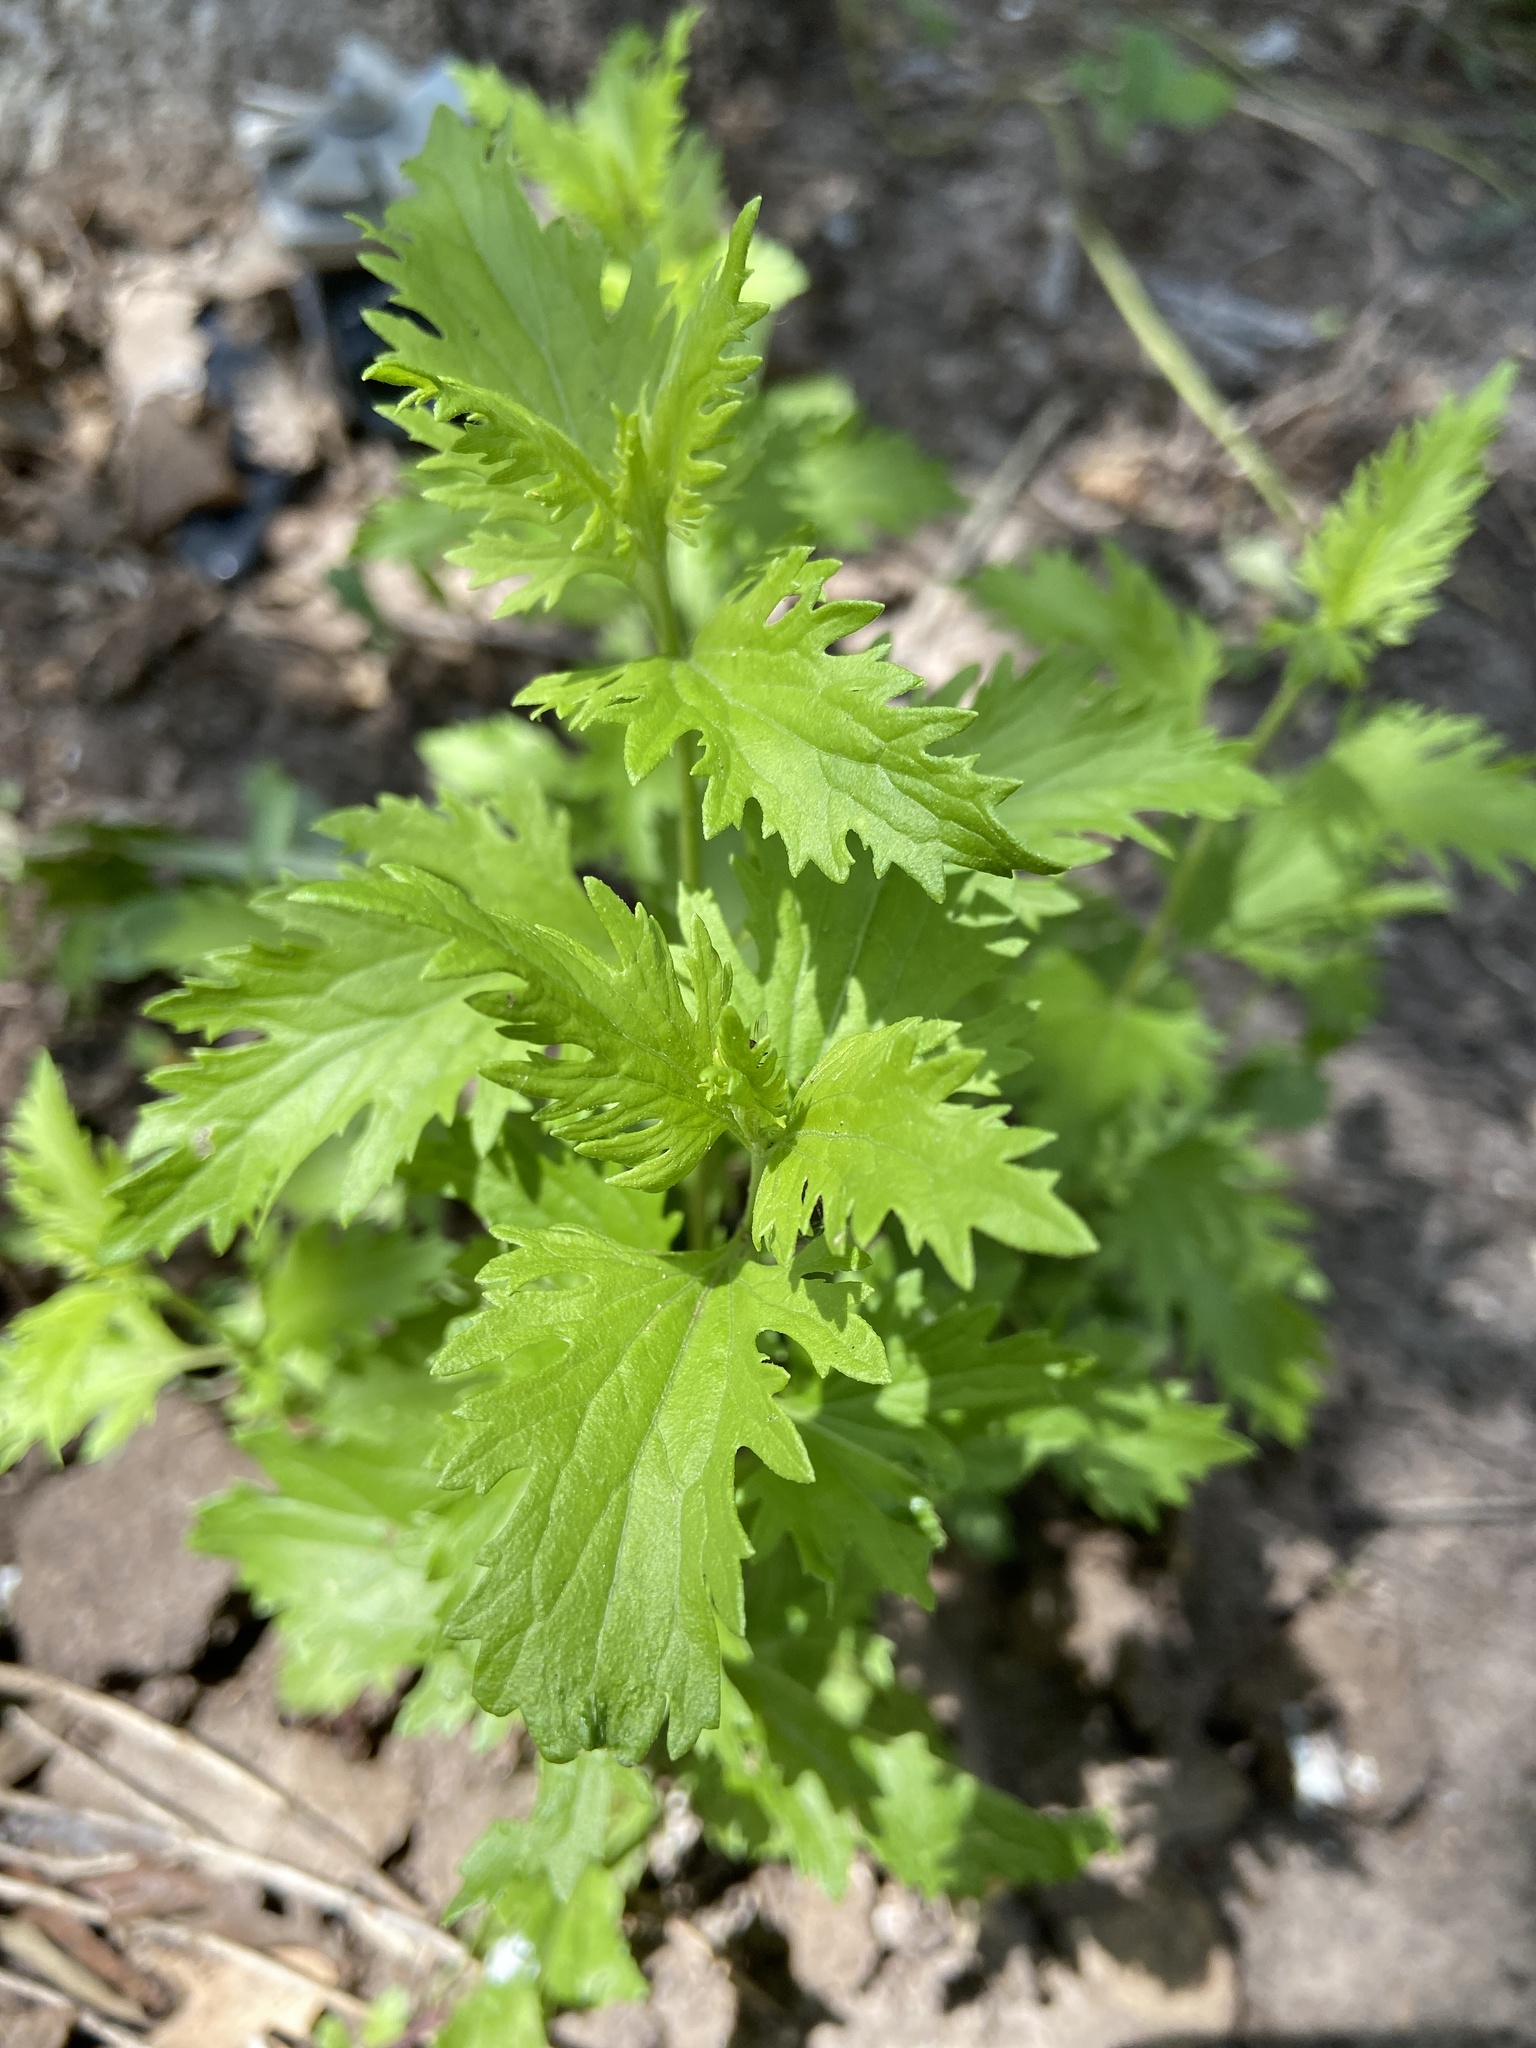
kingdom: Plantae
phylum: Tracheophyta
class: Magnoliopsida
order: Asterales
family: Asteraceae
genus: Conoclinium
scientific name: Conoclinium dissectum
